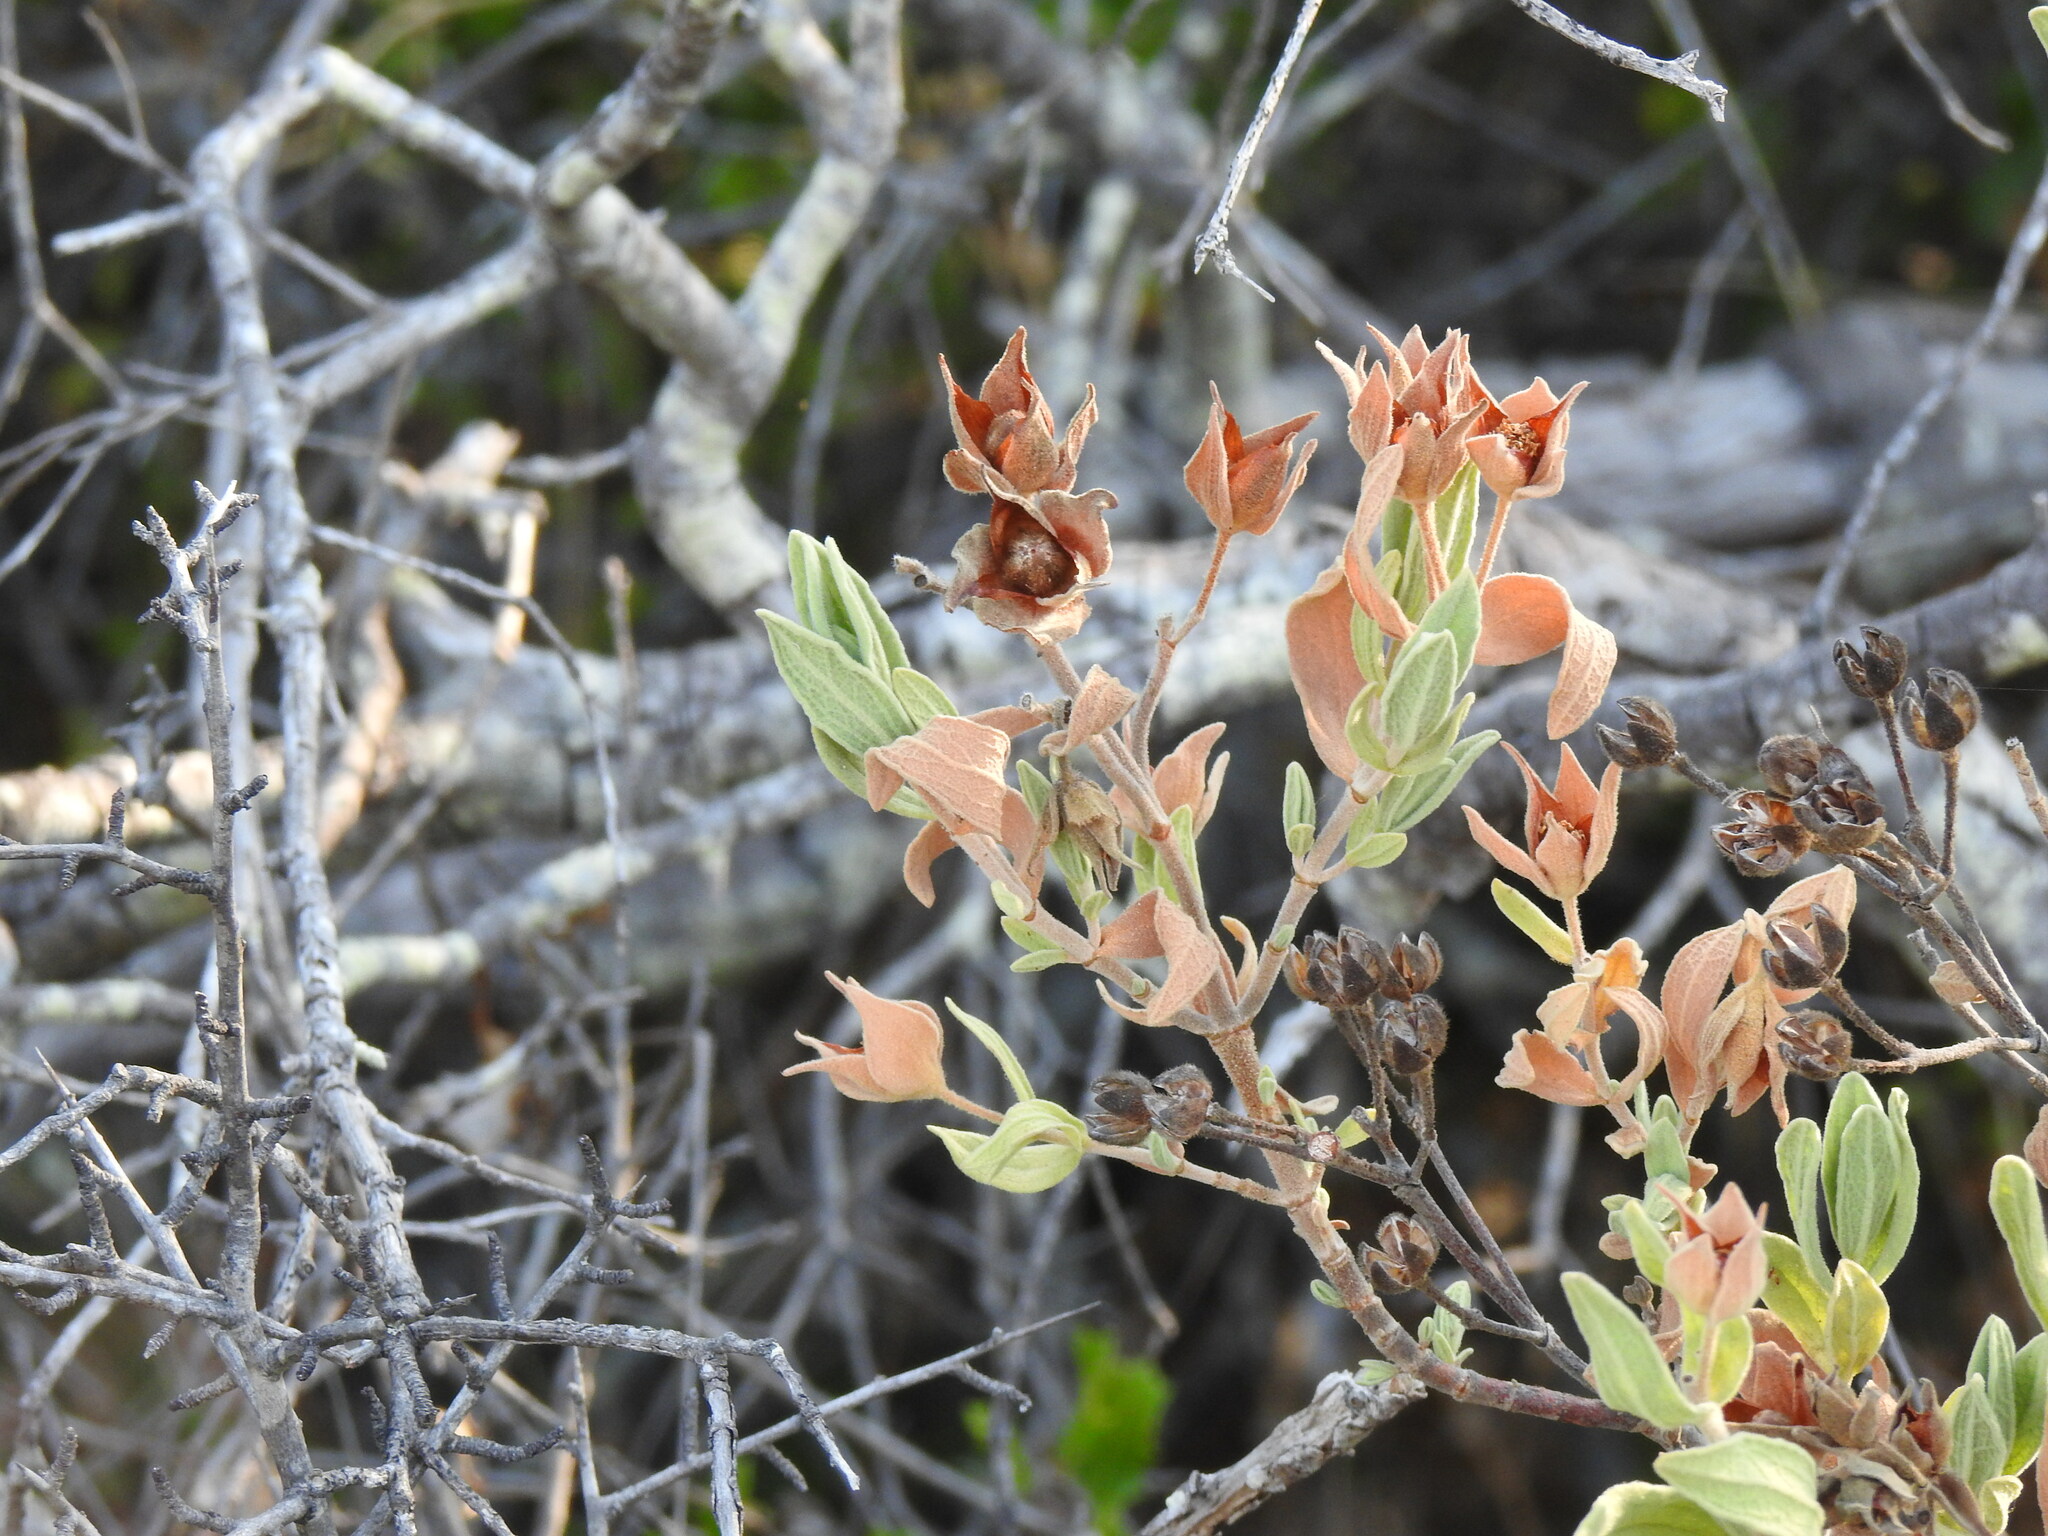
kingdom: Plantae
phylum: Tracheophyta
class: Magnoliopsida
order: Malvales
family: Cistaceae
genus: Cistus
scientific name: Cistus albidus
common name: White-leaf rock-rose
